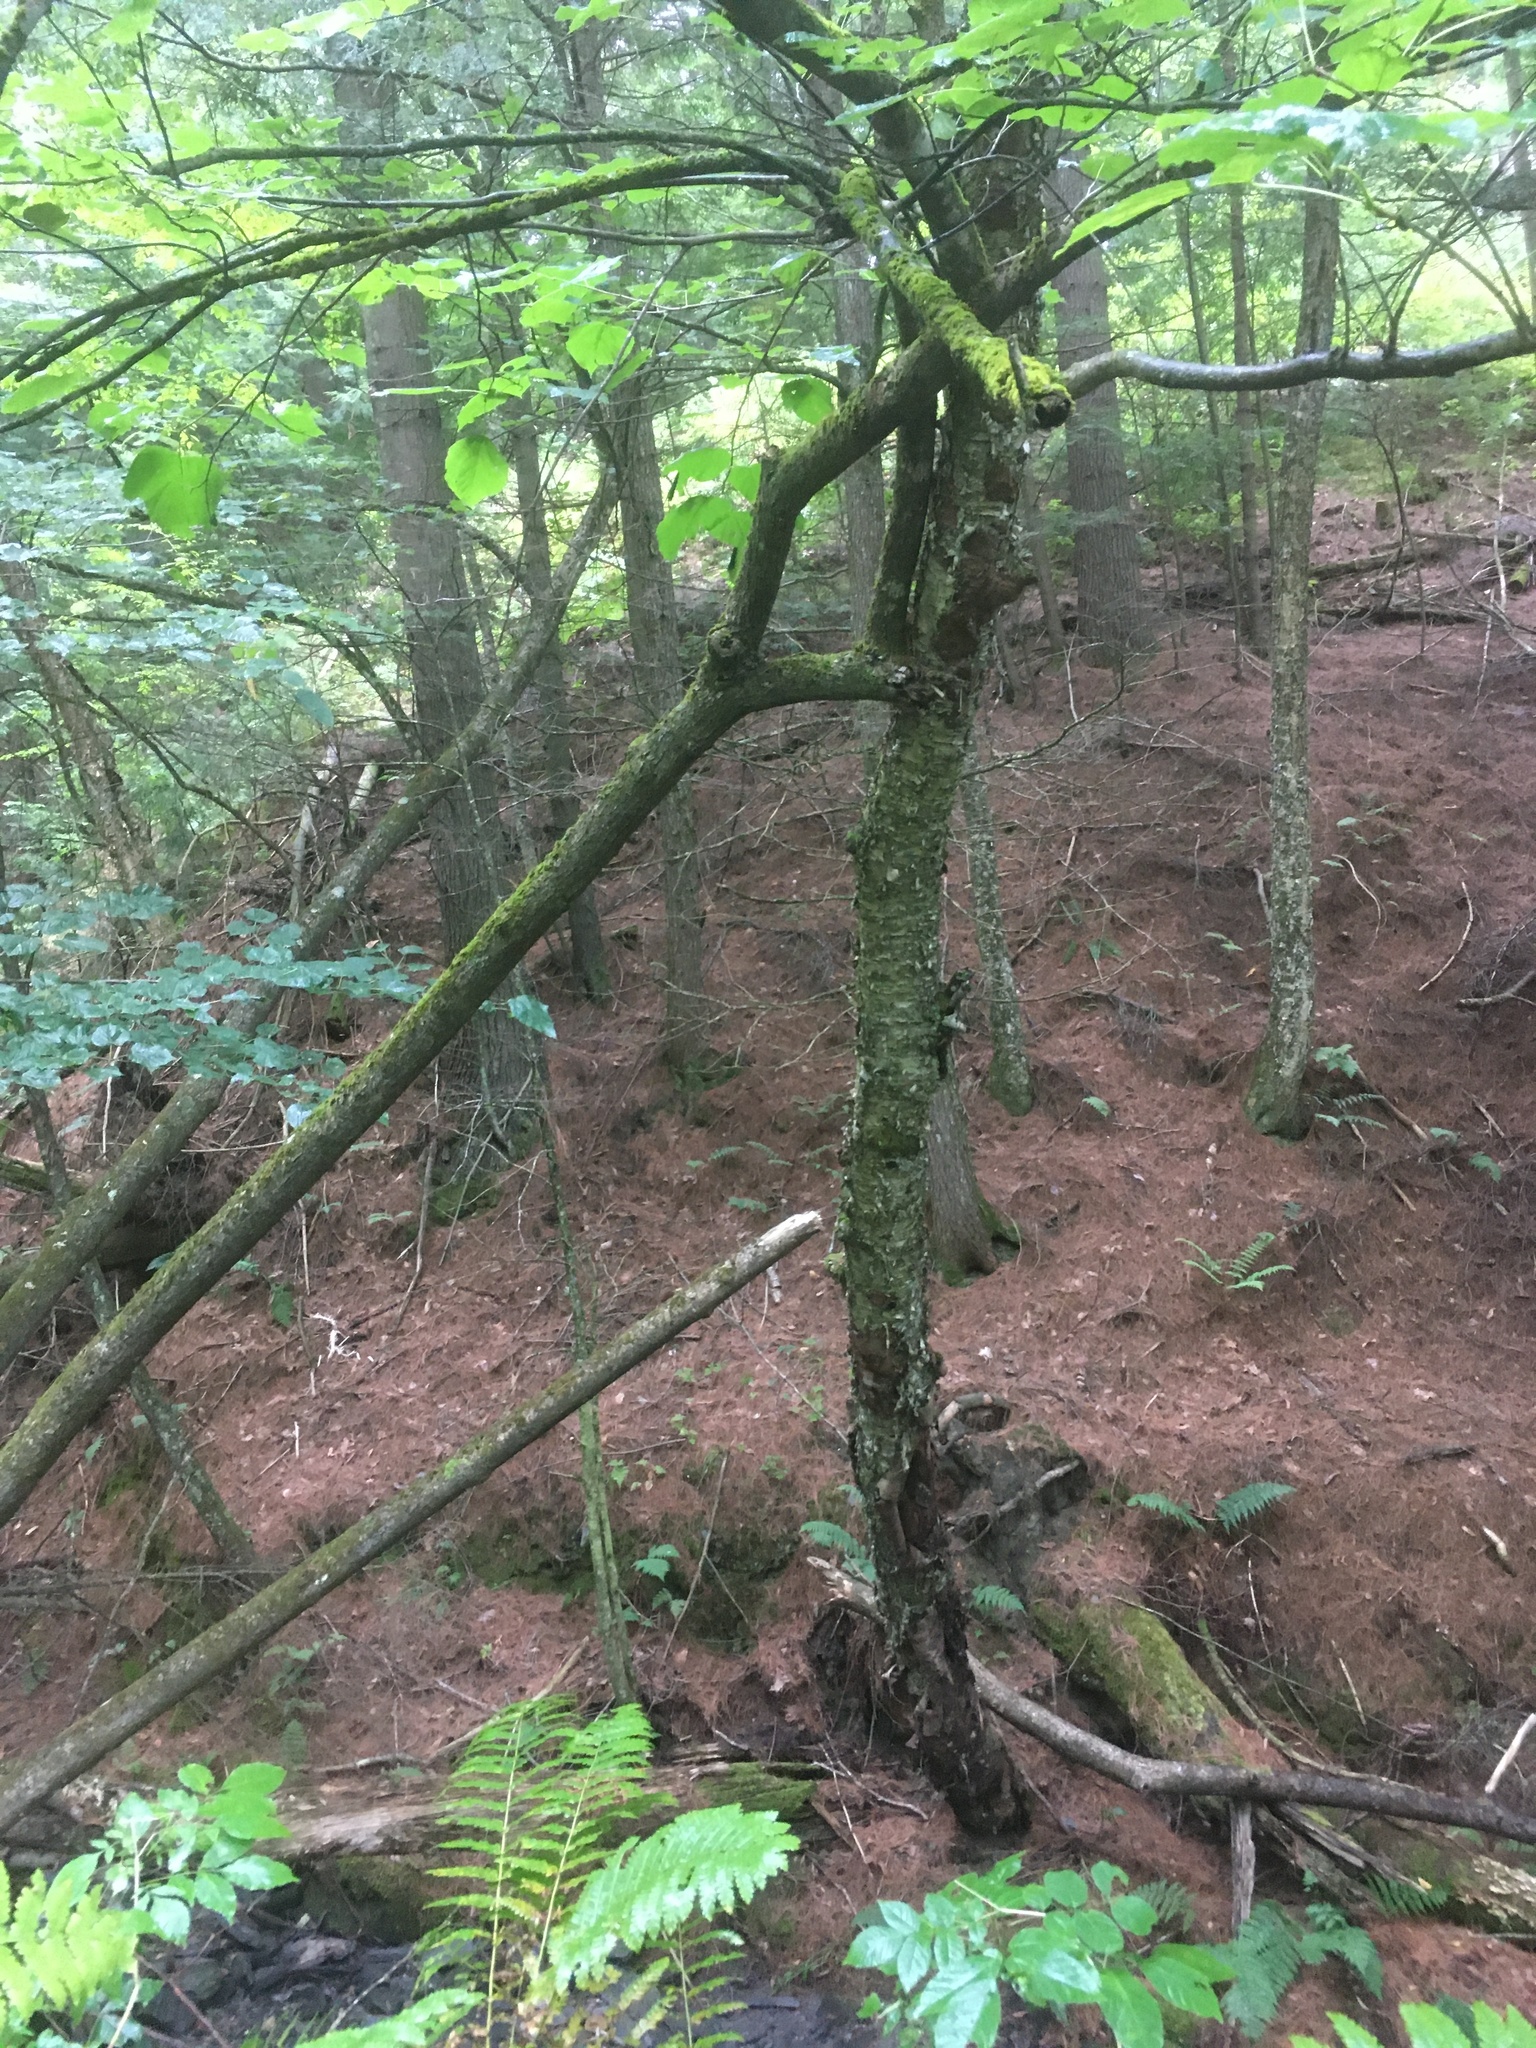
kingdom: Plantae
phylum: Tracheophyta
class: Magnoliopsida
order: Fagales
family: Betulaceae
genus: Betula
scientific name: Betula alleghaniensis
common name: Yellow birch
